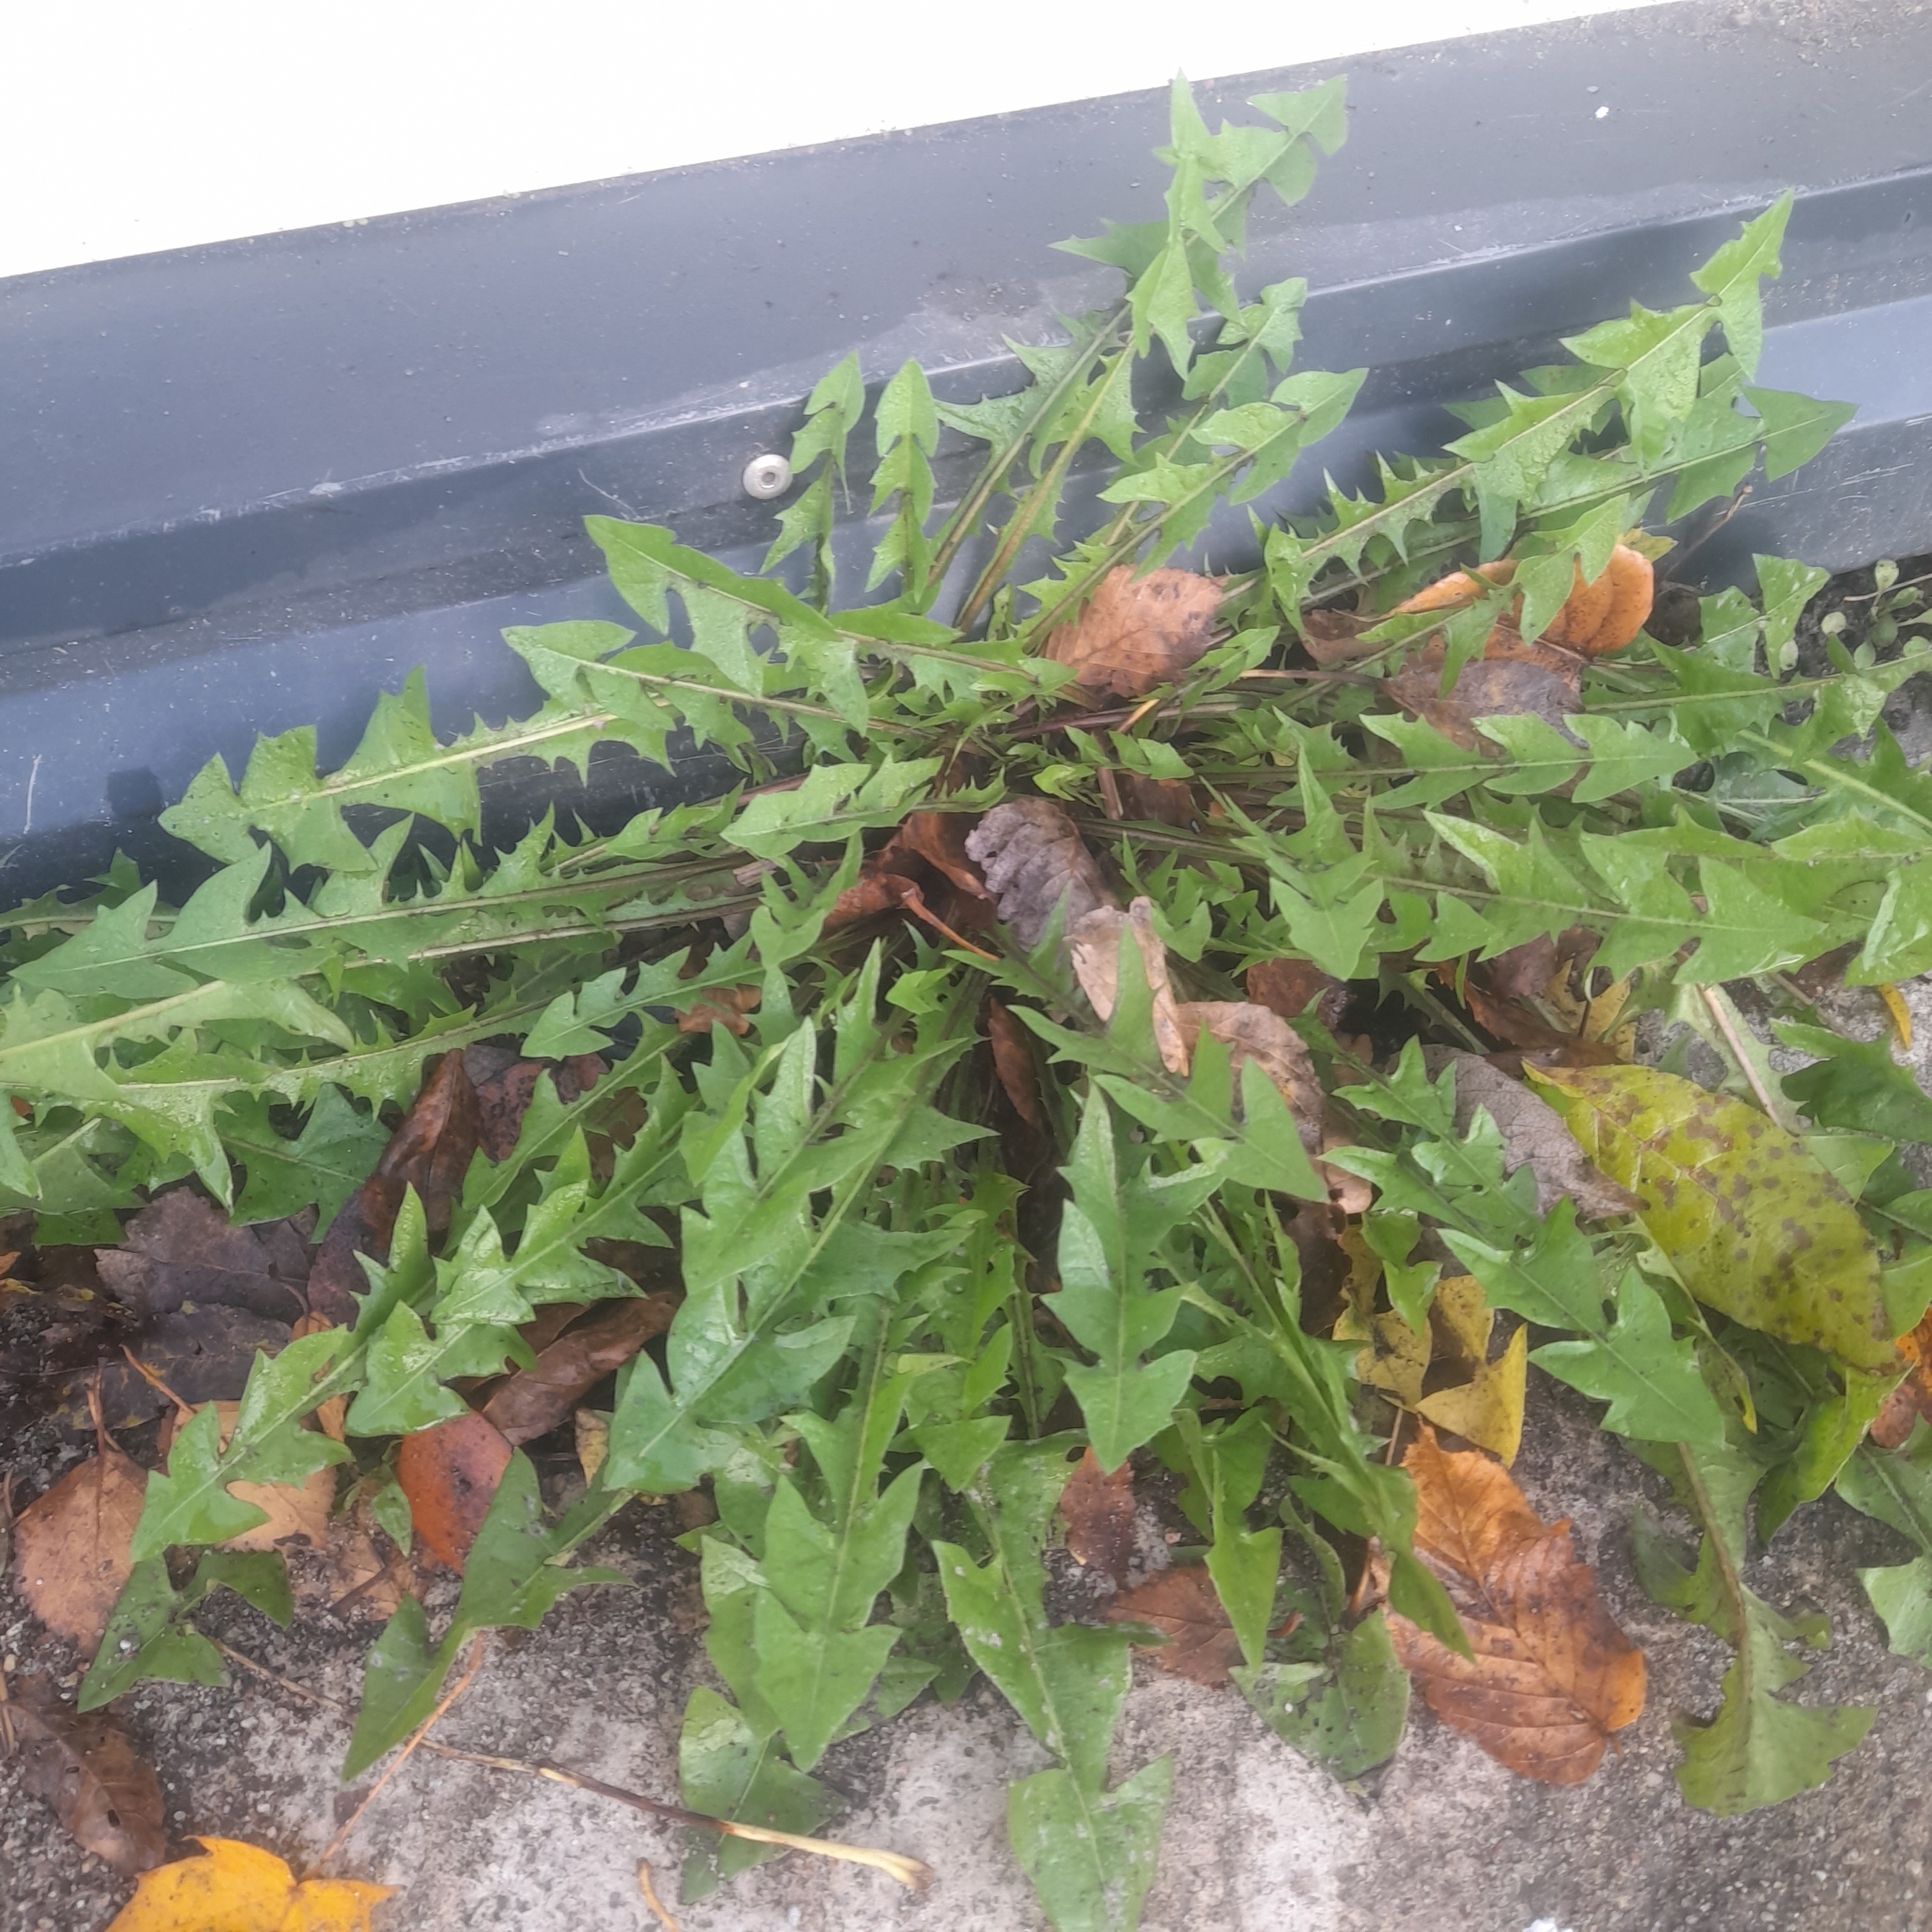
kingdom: Plantae
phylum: Tracheophyta
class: Magnoliopsida
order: Asterales
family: Asteraceae
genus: Taraxacum
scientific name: Taraxacum officinale
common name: Common dandelion
